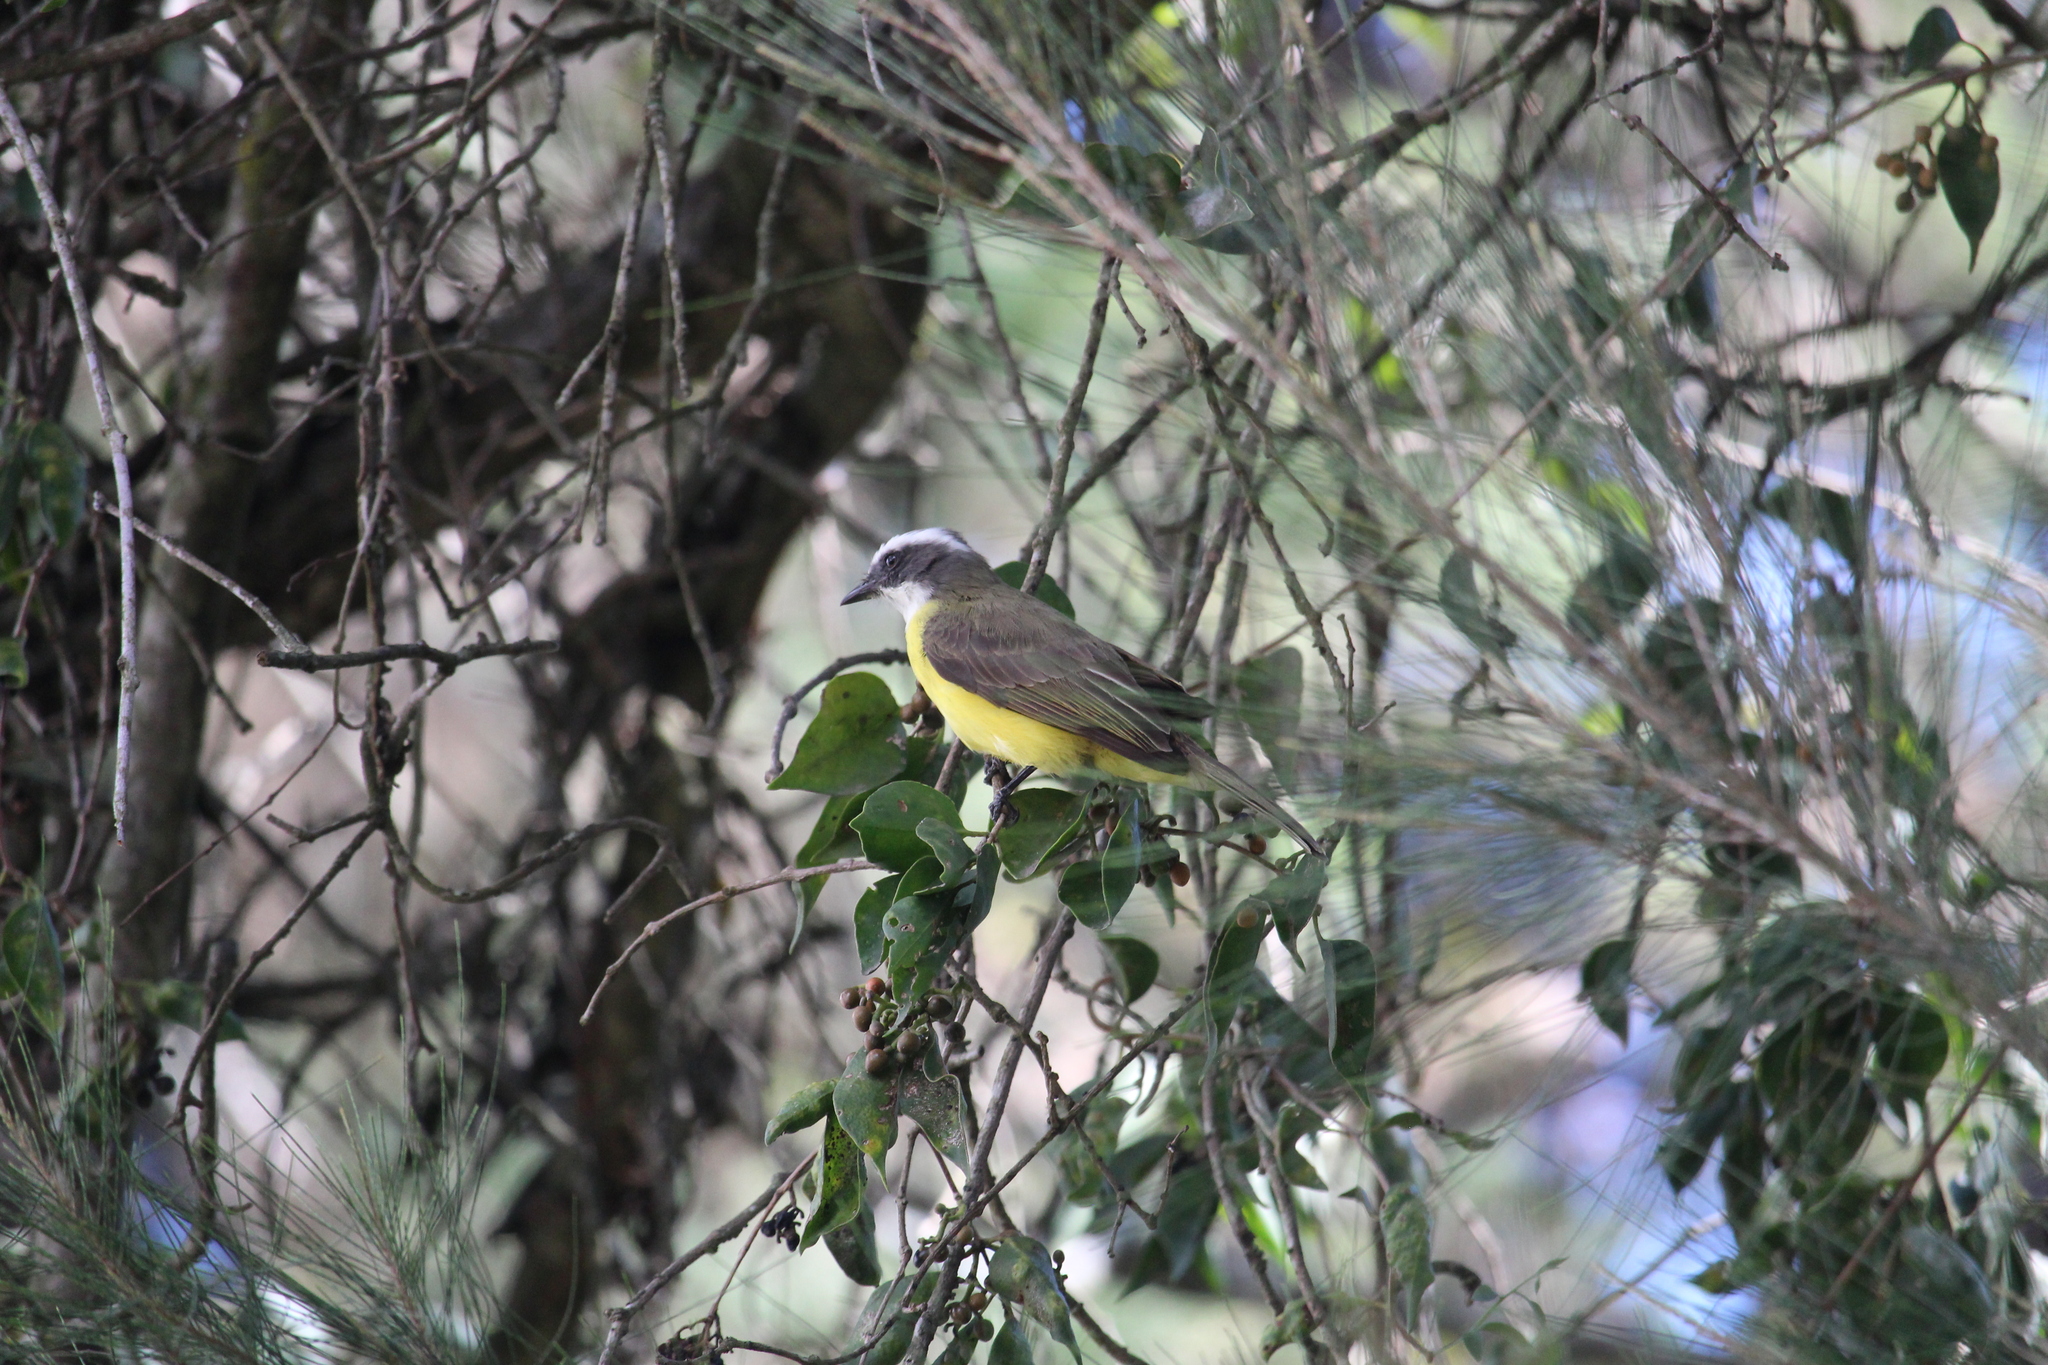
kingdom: Animalia
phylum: Chordata
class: Aves
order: Passeriformes
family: Tyrannidae
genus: Myiozetetes
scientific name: Myiozetetes similis
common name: Social flycatcher
